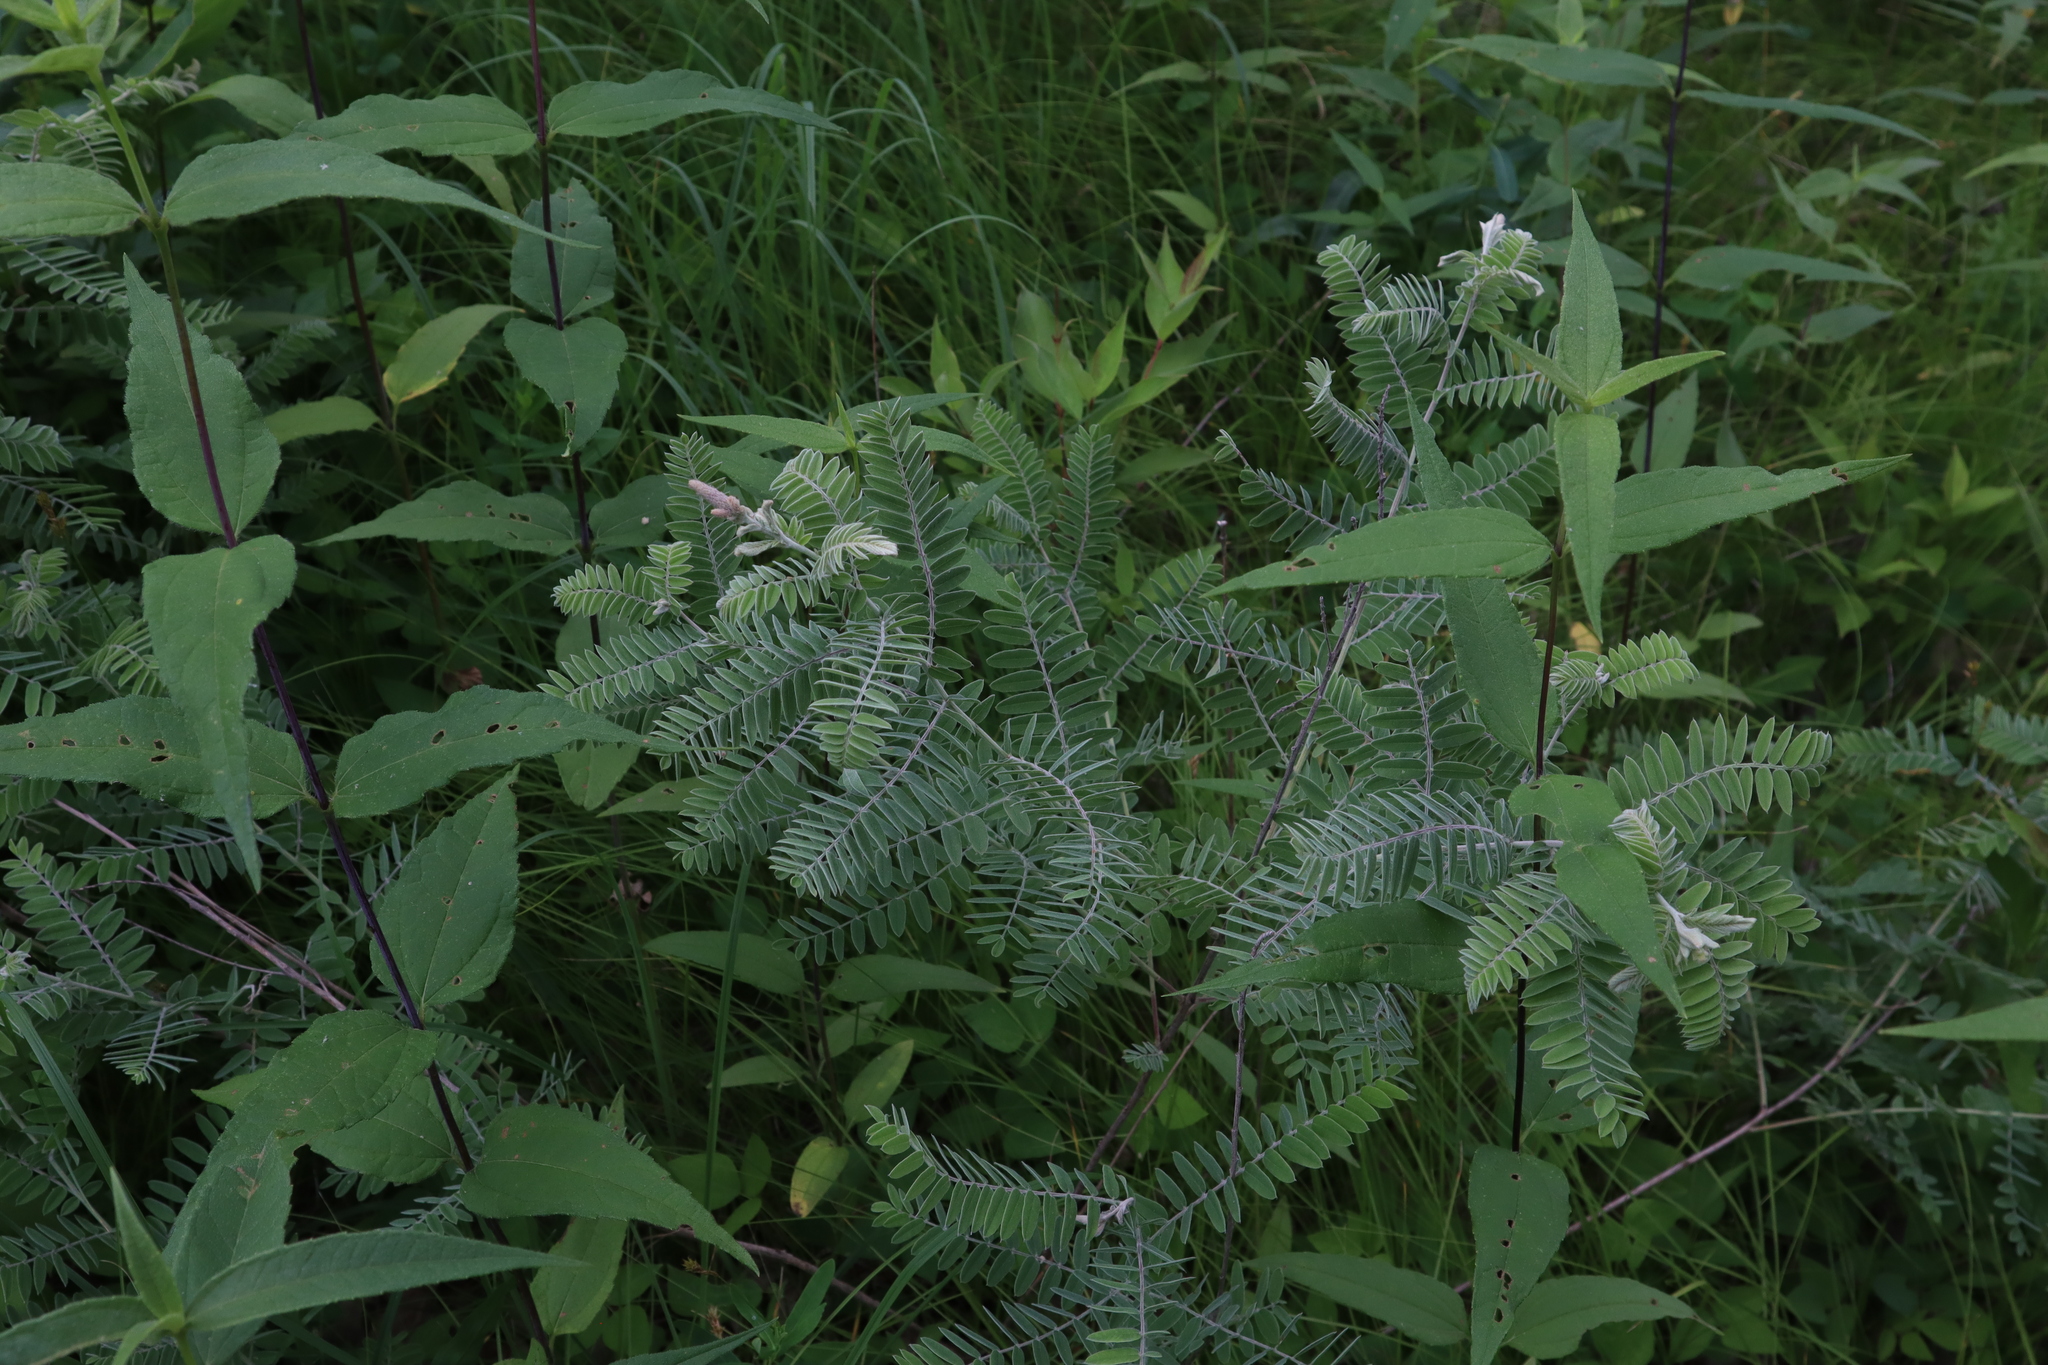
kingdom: Plantae
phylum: Tracheophyta
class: Magnoliopsida
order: Fabales
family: Fabaceae
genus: Amorpha
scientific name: Amorpha canescens
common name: Leadplant
